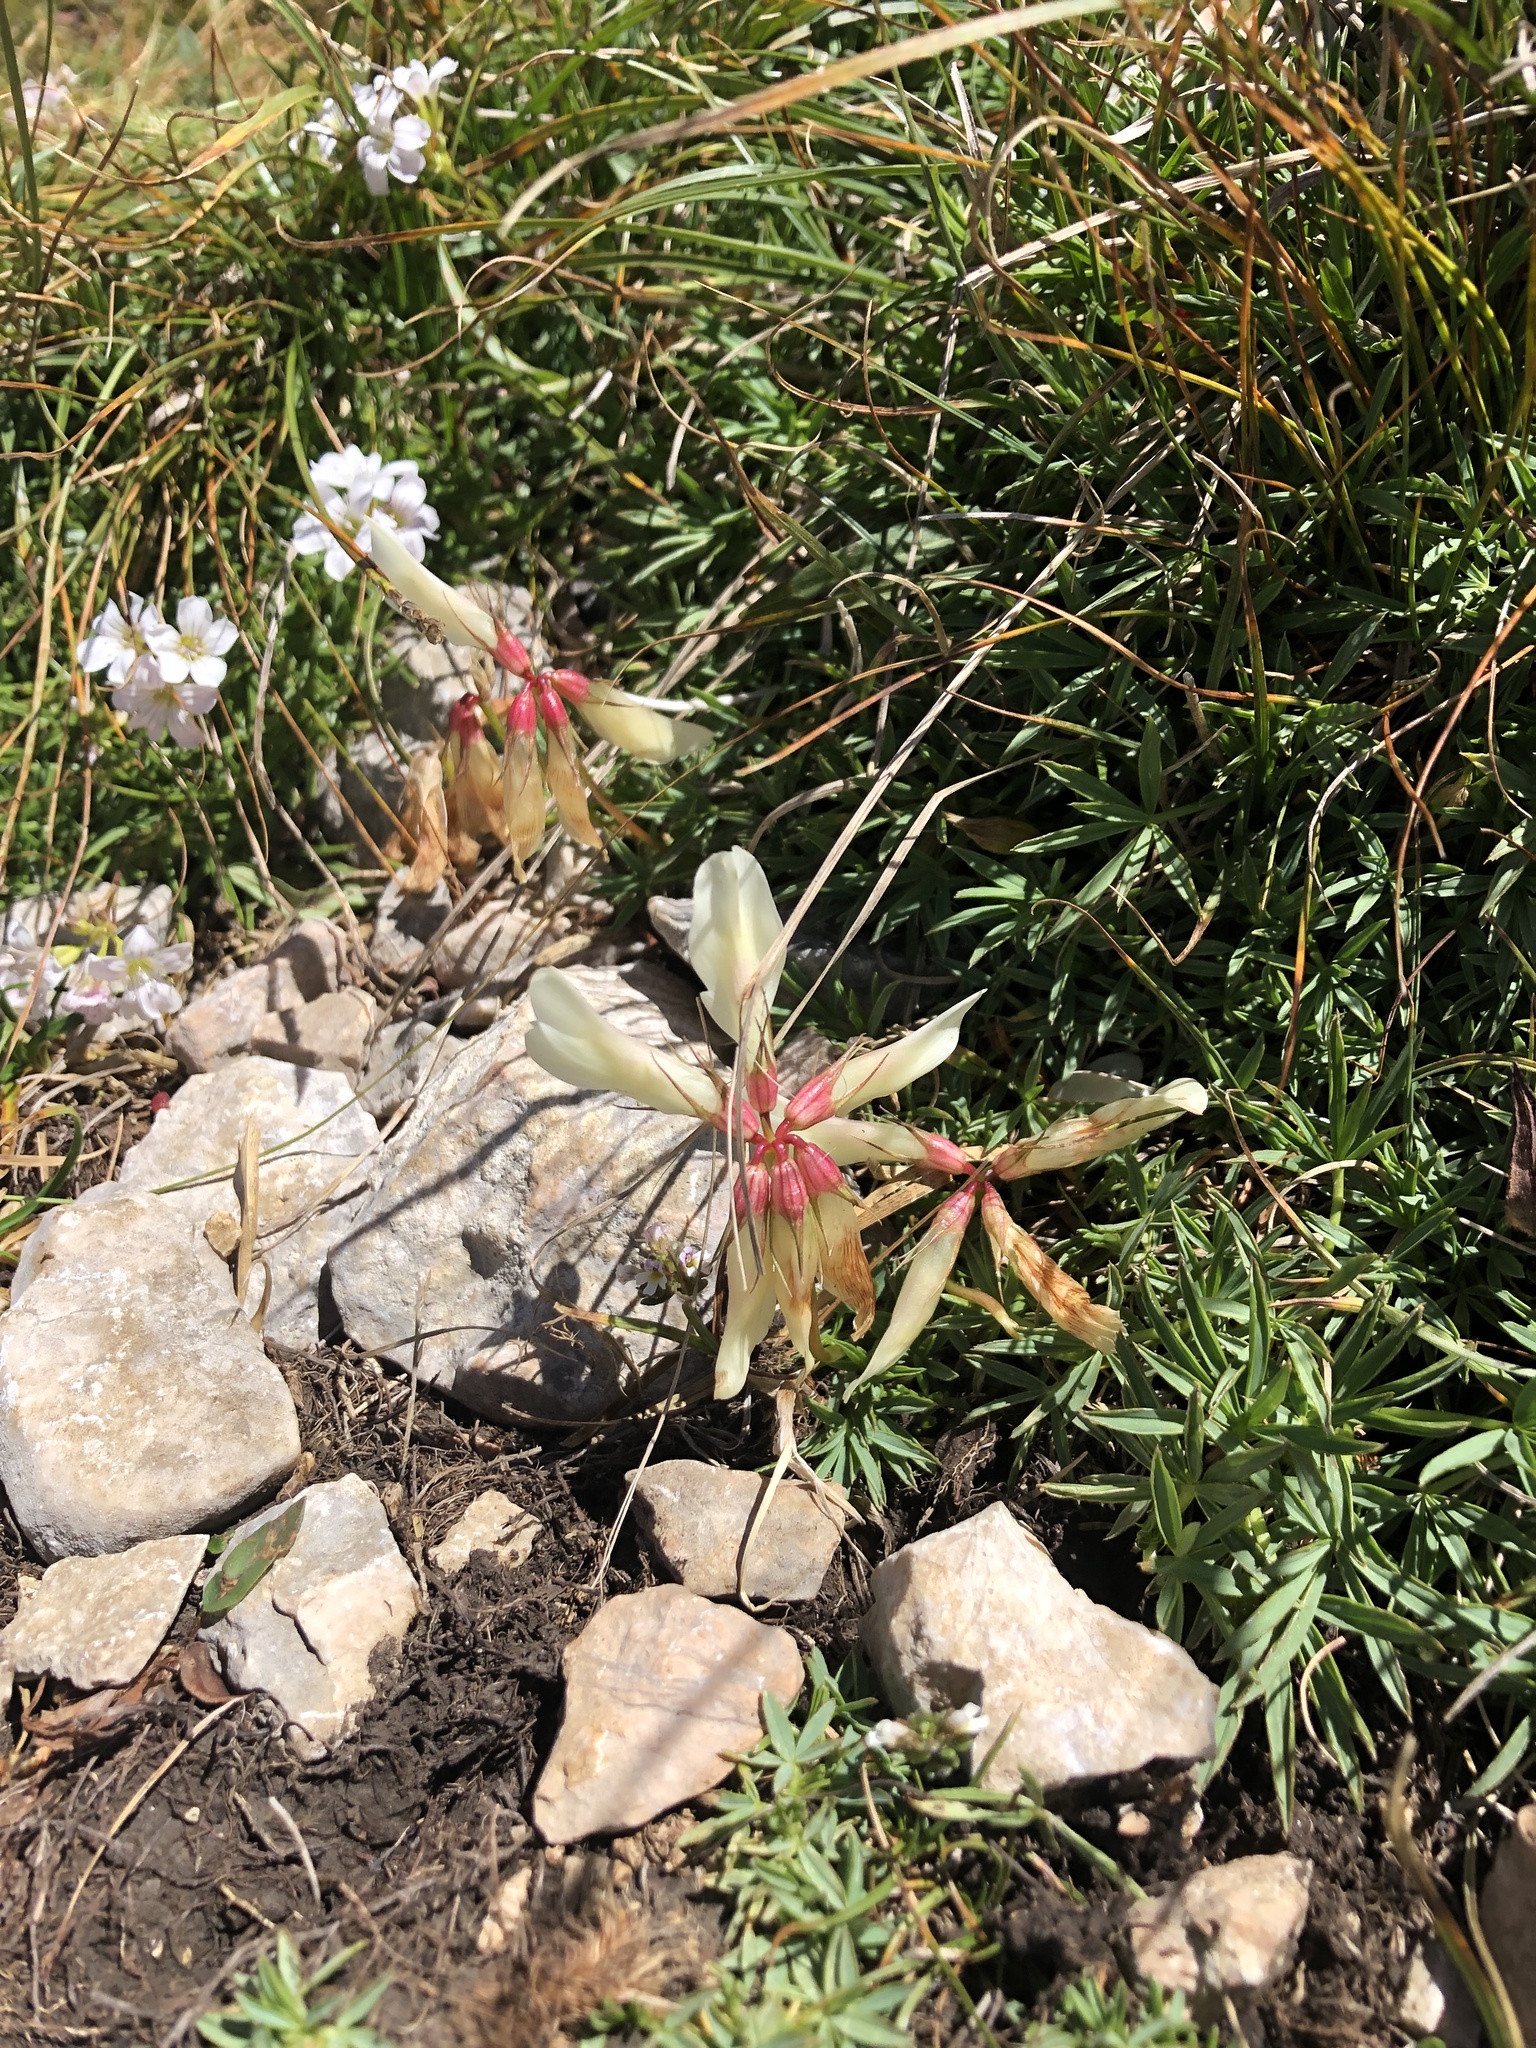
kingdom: Plantae
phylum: Tracheophyta
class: Magnoliopsida
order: Fabales
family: Fabaceae
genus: Trifolium
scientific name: Trifolium polyphyllum
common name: Many-leaf clover
